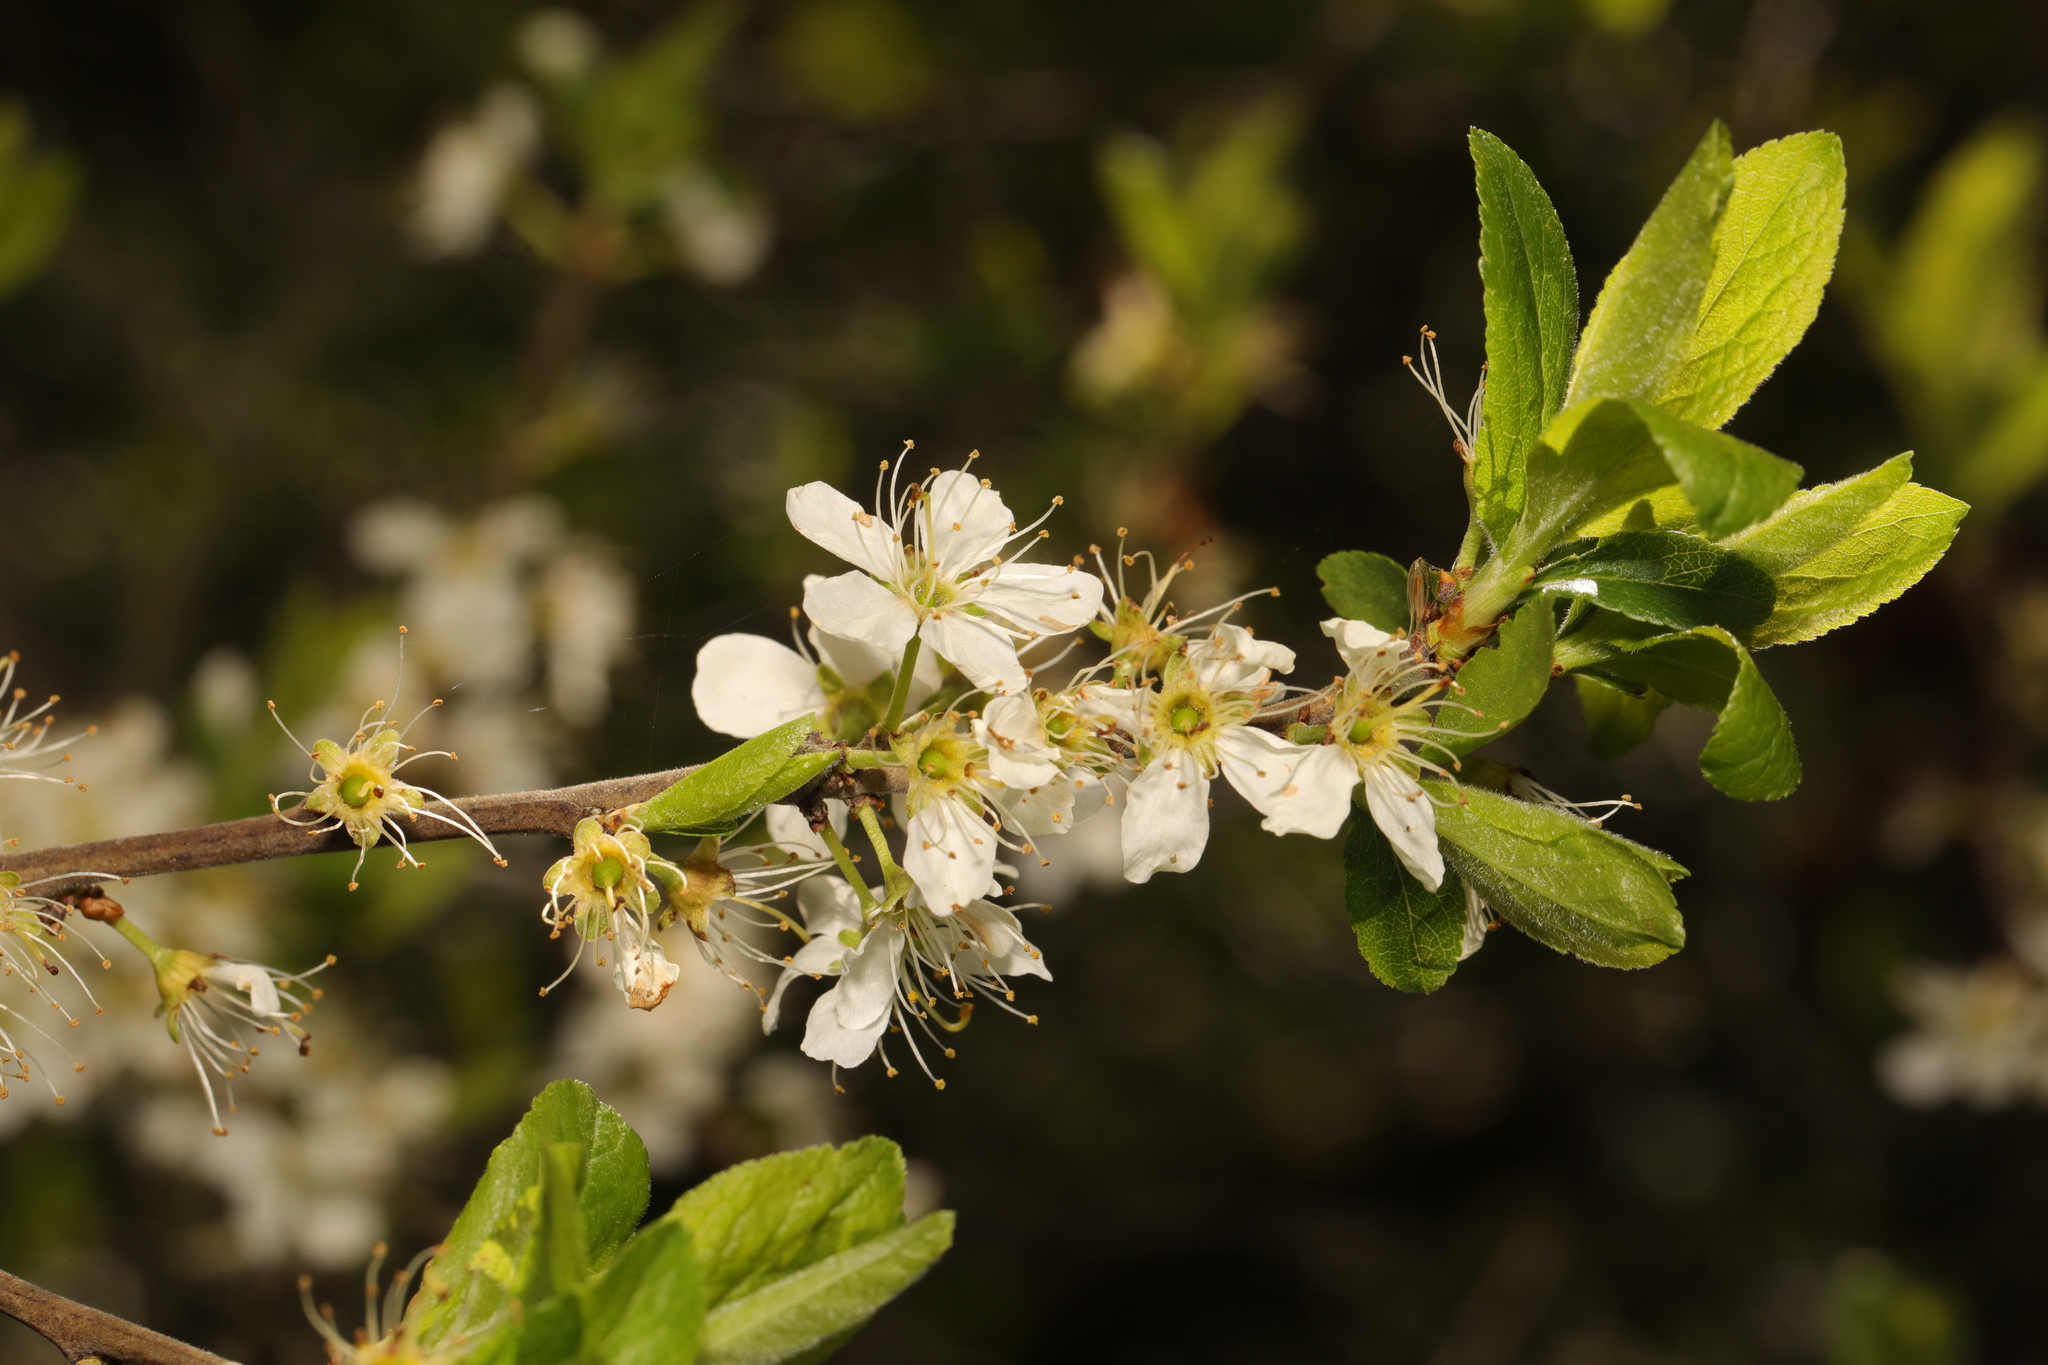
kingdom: Plantae
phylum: Tracheophyta
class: Magnoliopsida
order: Rosales
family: Rosaceae
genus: Prunus
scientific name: Prunus spinosa
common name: Blackthorn
